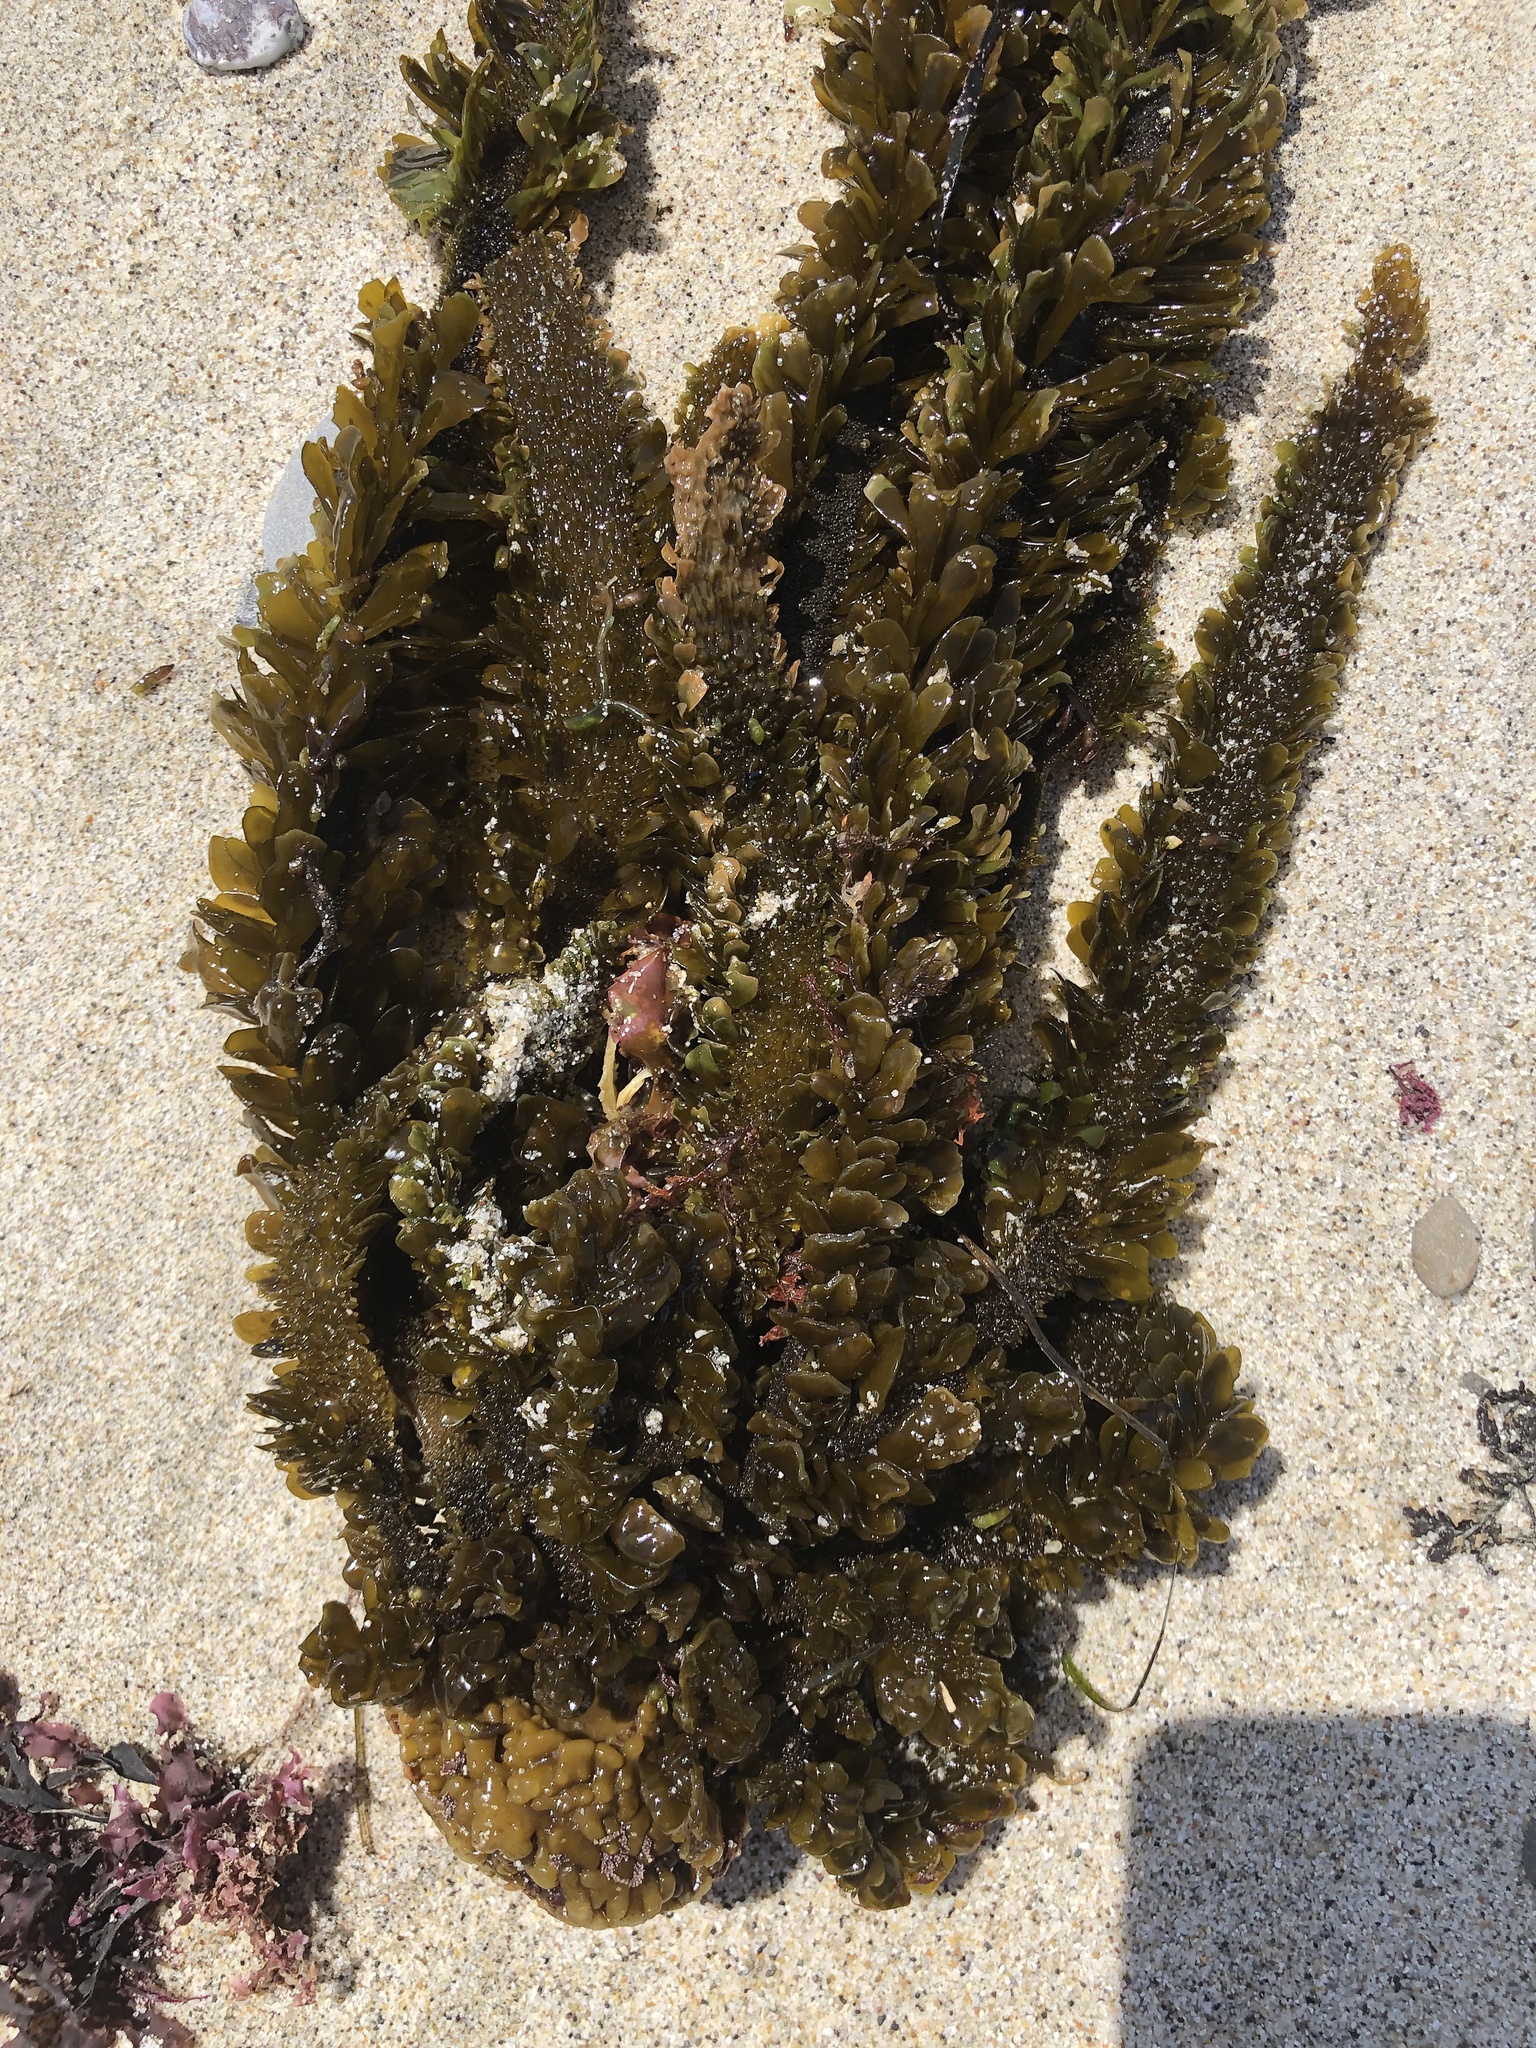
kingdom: Chromista
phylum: Ochrophyta
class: Phaeophyceae
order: Laminariales
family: Lessoniaceae
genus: Egregia
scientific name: Egregia menziesii
